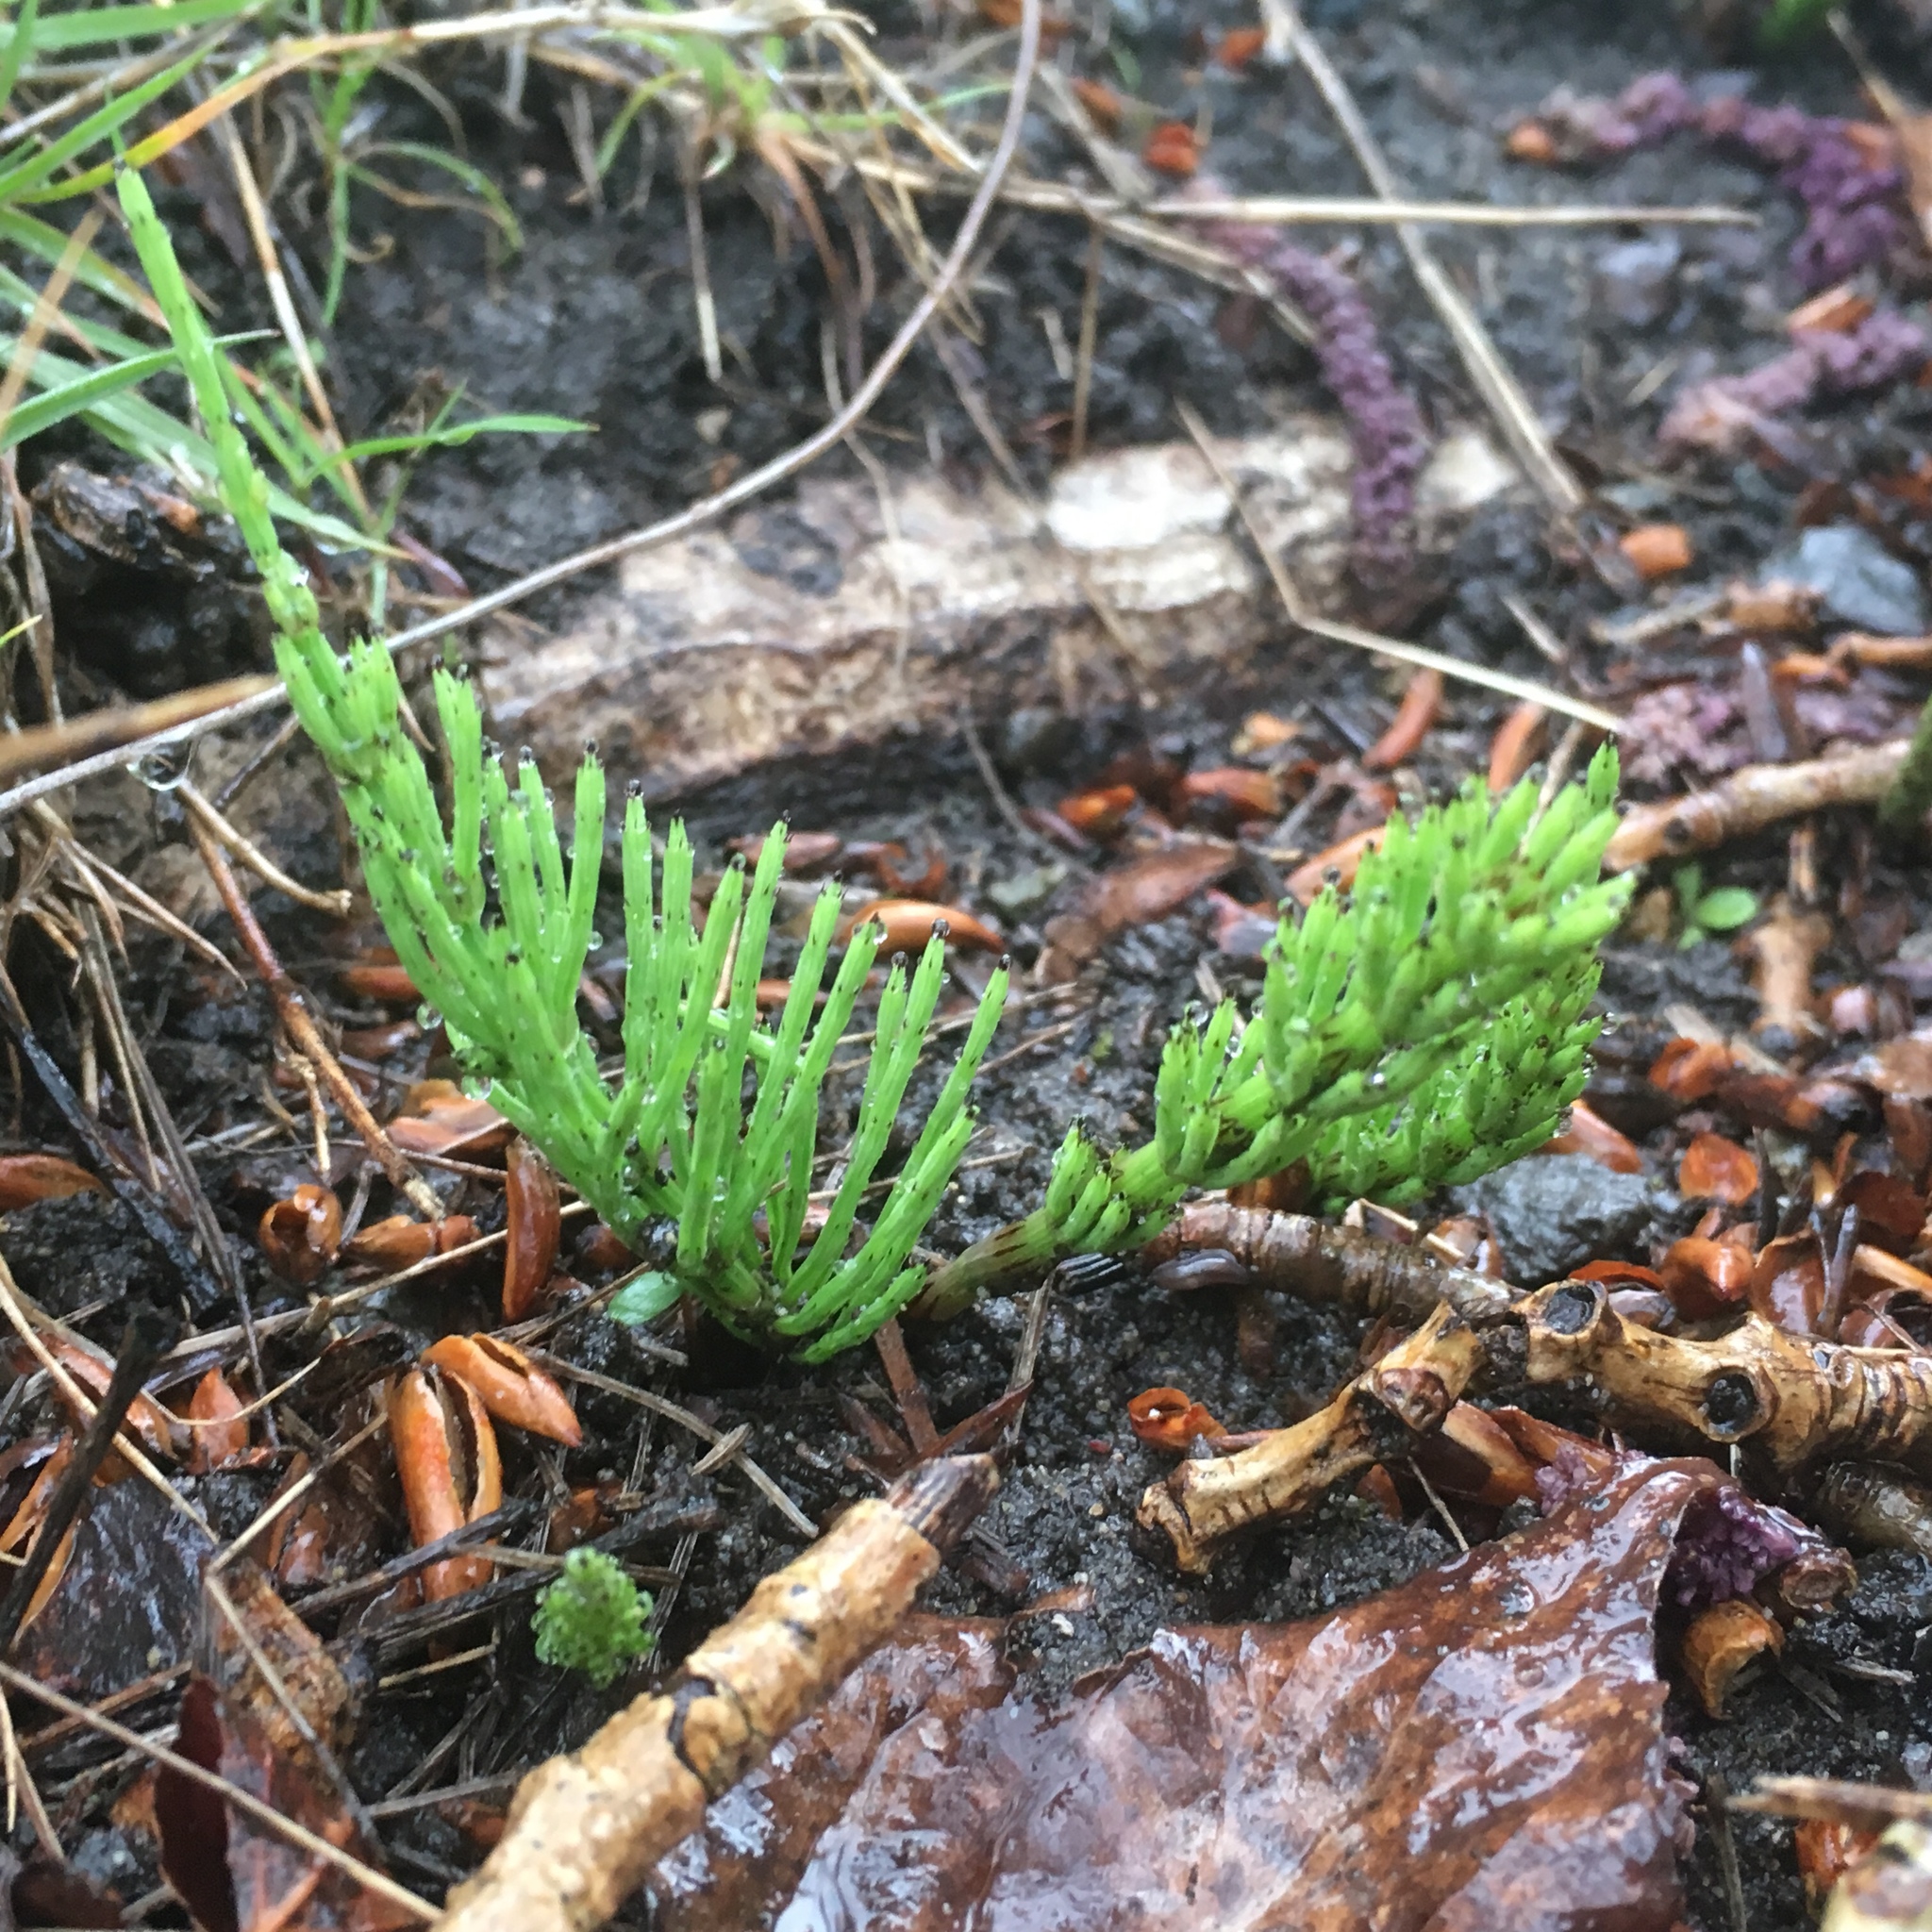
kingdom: Plantae
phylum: Tracheophyta
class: Polypodiopsida
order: Equisetales
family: Equisetaceae
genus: Equisetum
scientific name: Equisetum arvense
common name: Field horsetail
